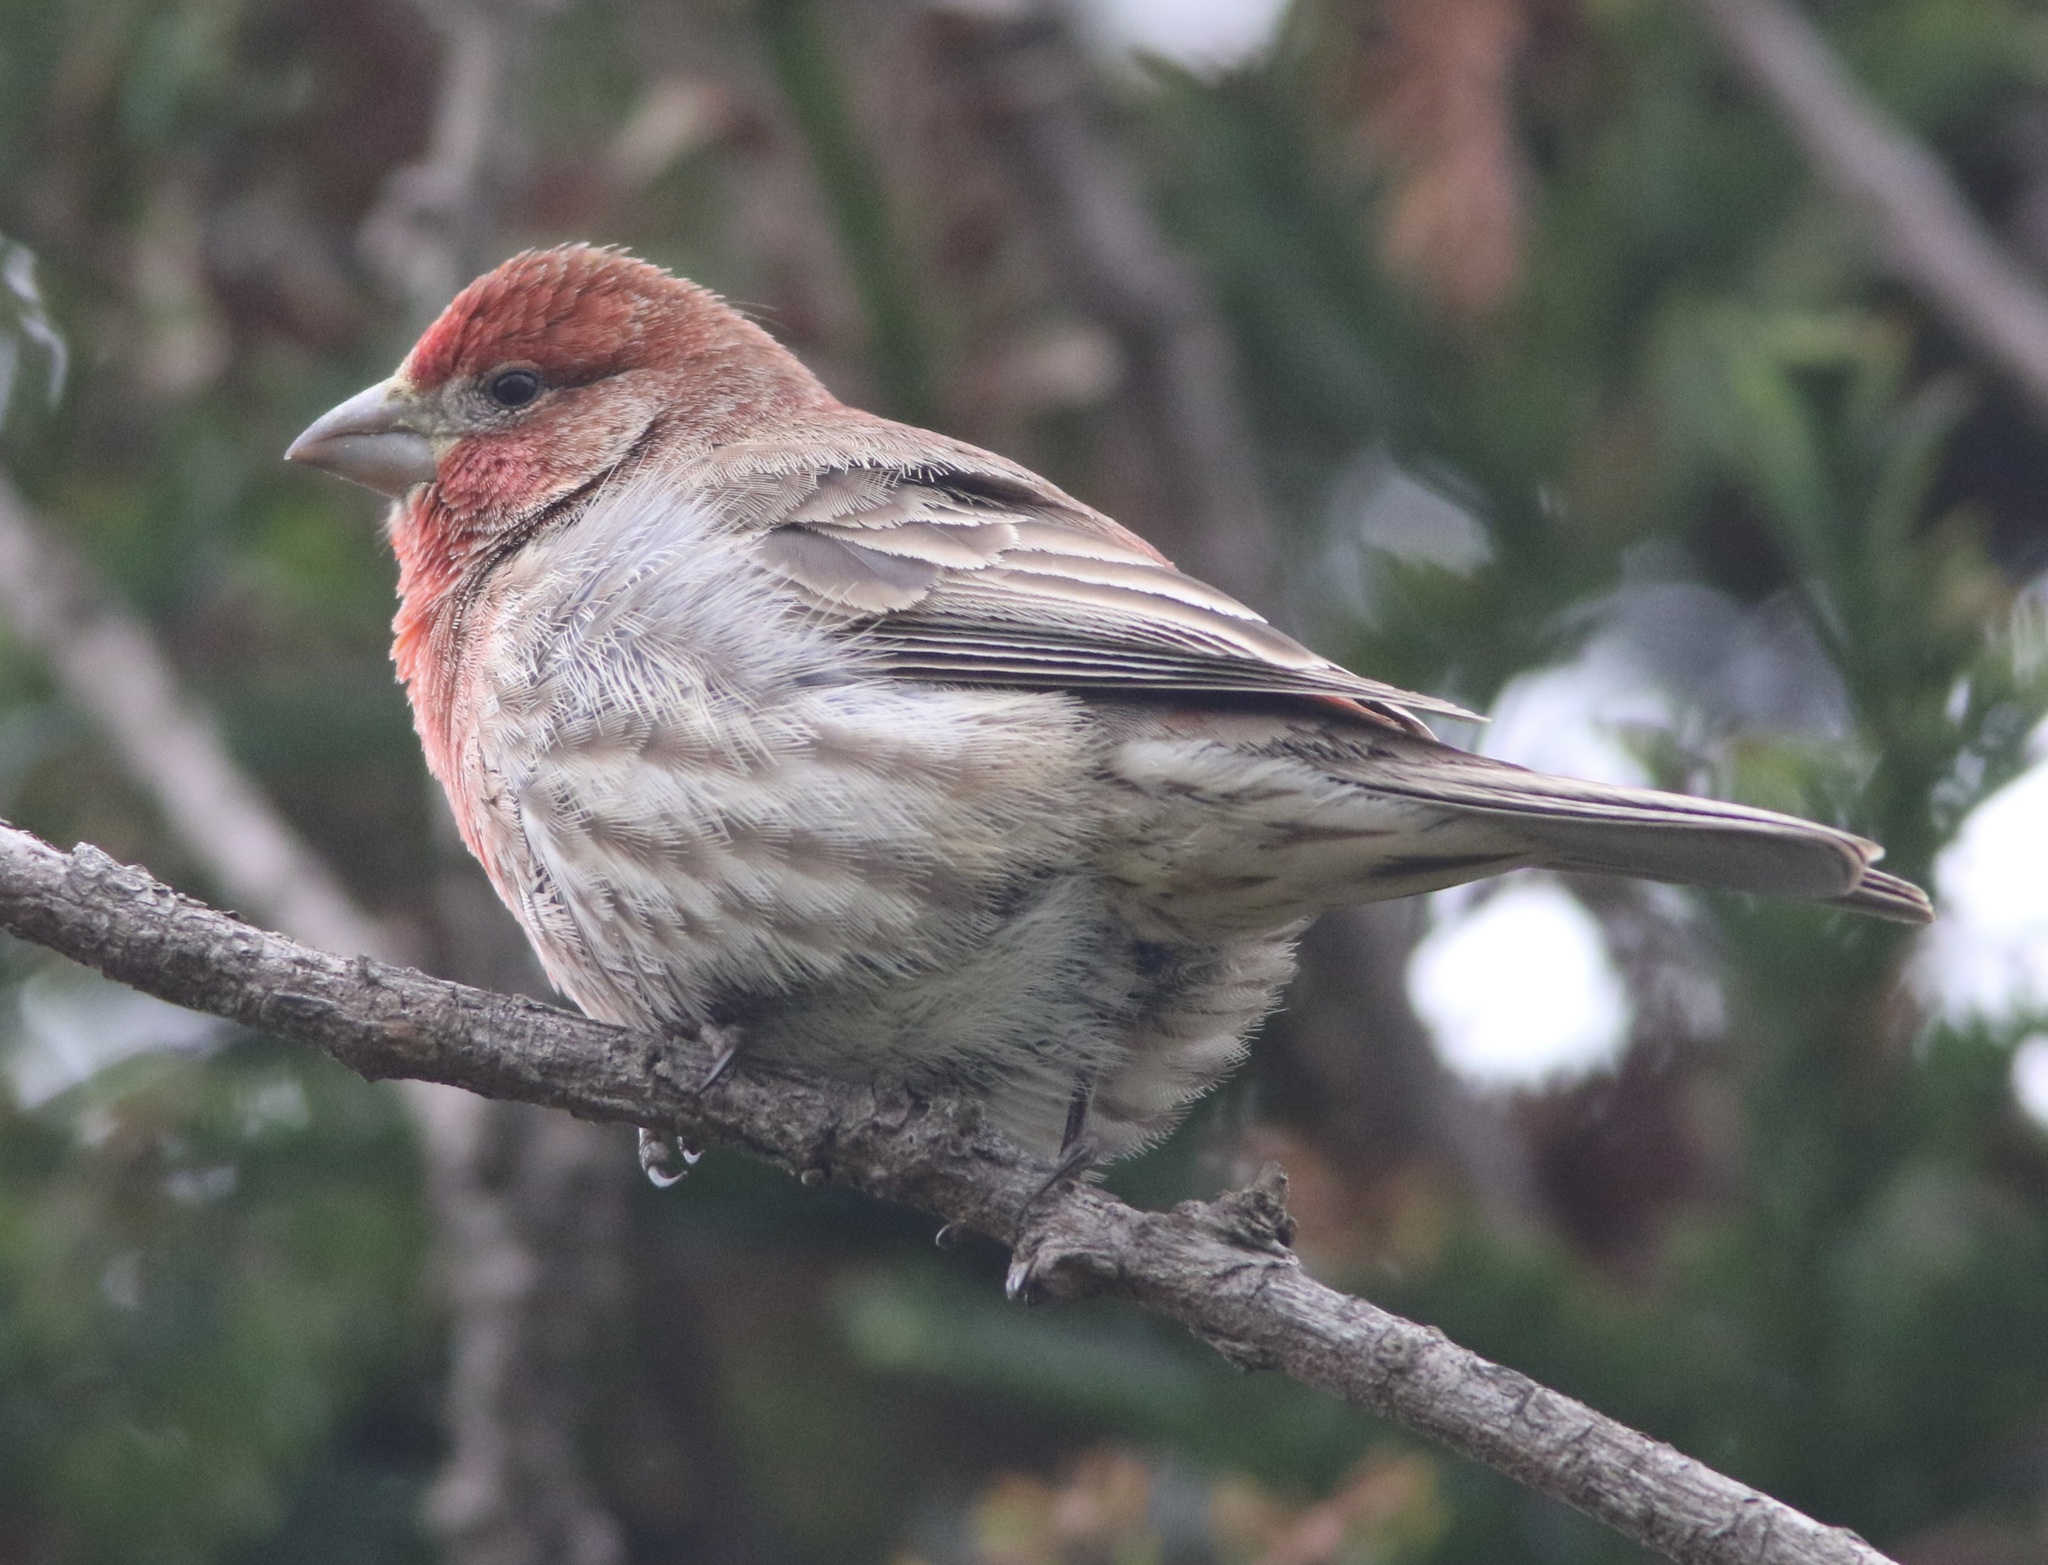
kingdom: Animalia
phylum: Chordata
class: Aves
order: Passeriformes
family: Fringillidae
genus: Haemorhous
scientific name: Haemorhous mexicanus
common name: House finch
